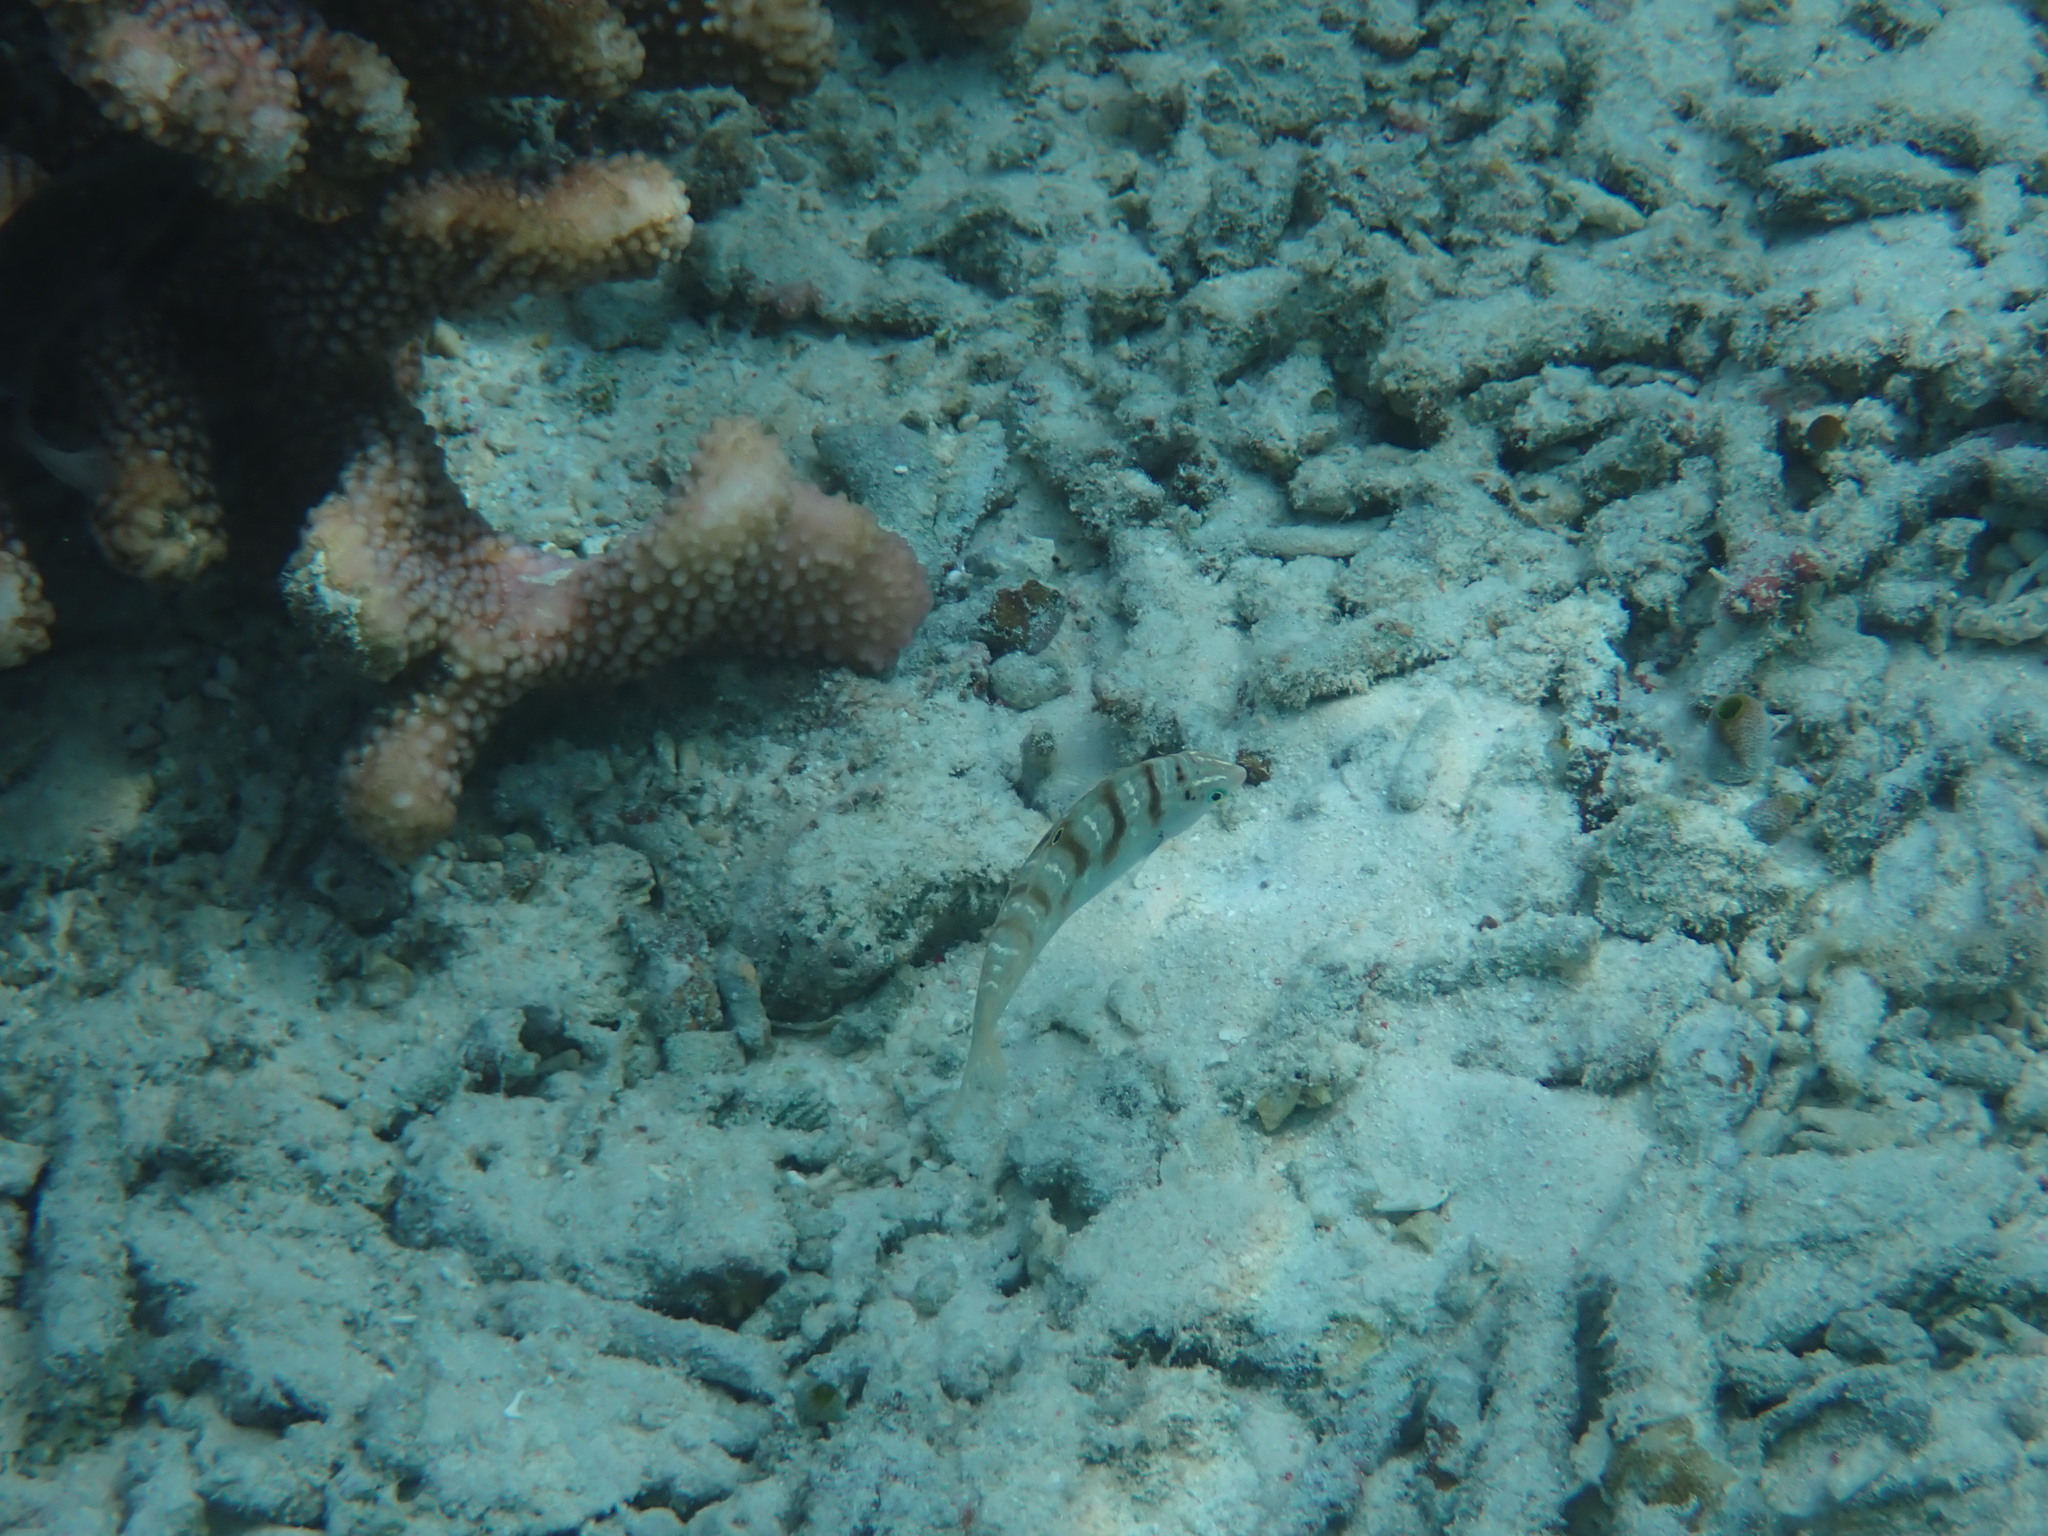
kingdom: Animalia
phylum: Chordata
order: Perciformes
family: Labridae
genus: Coris
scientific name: Coris batuensis
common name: Batu coris
